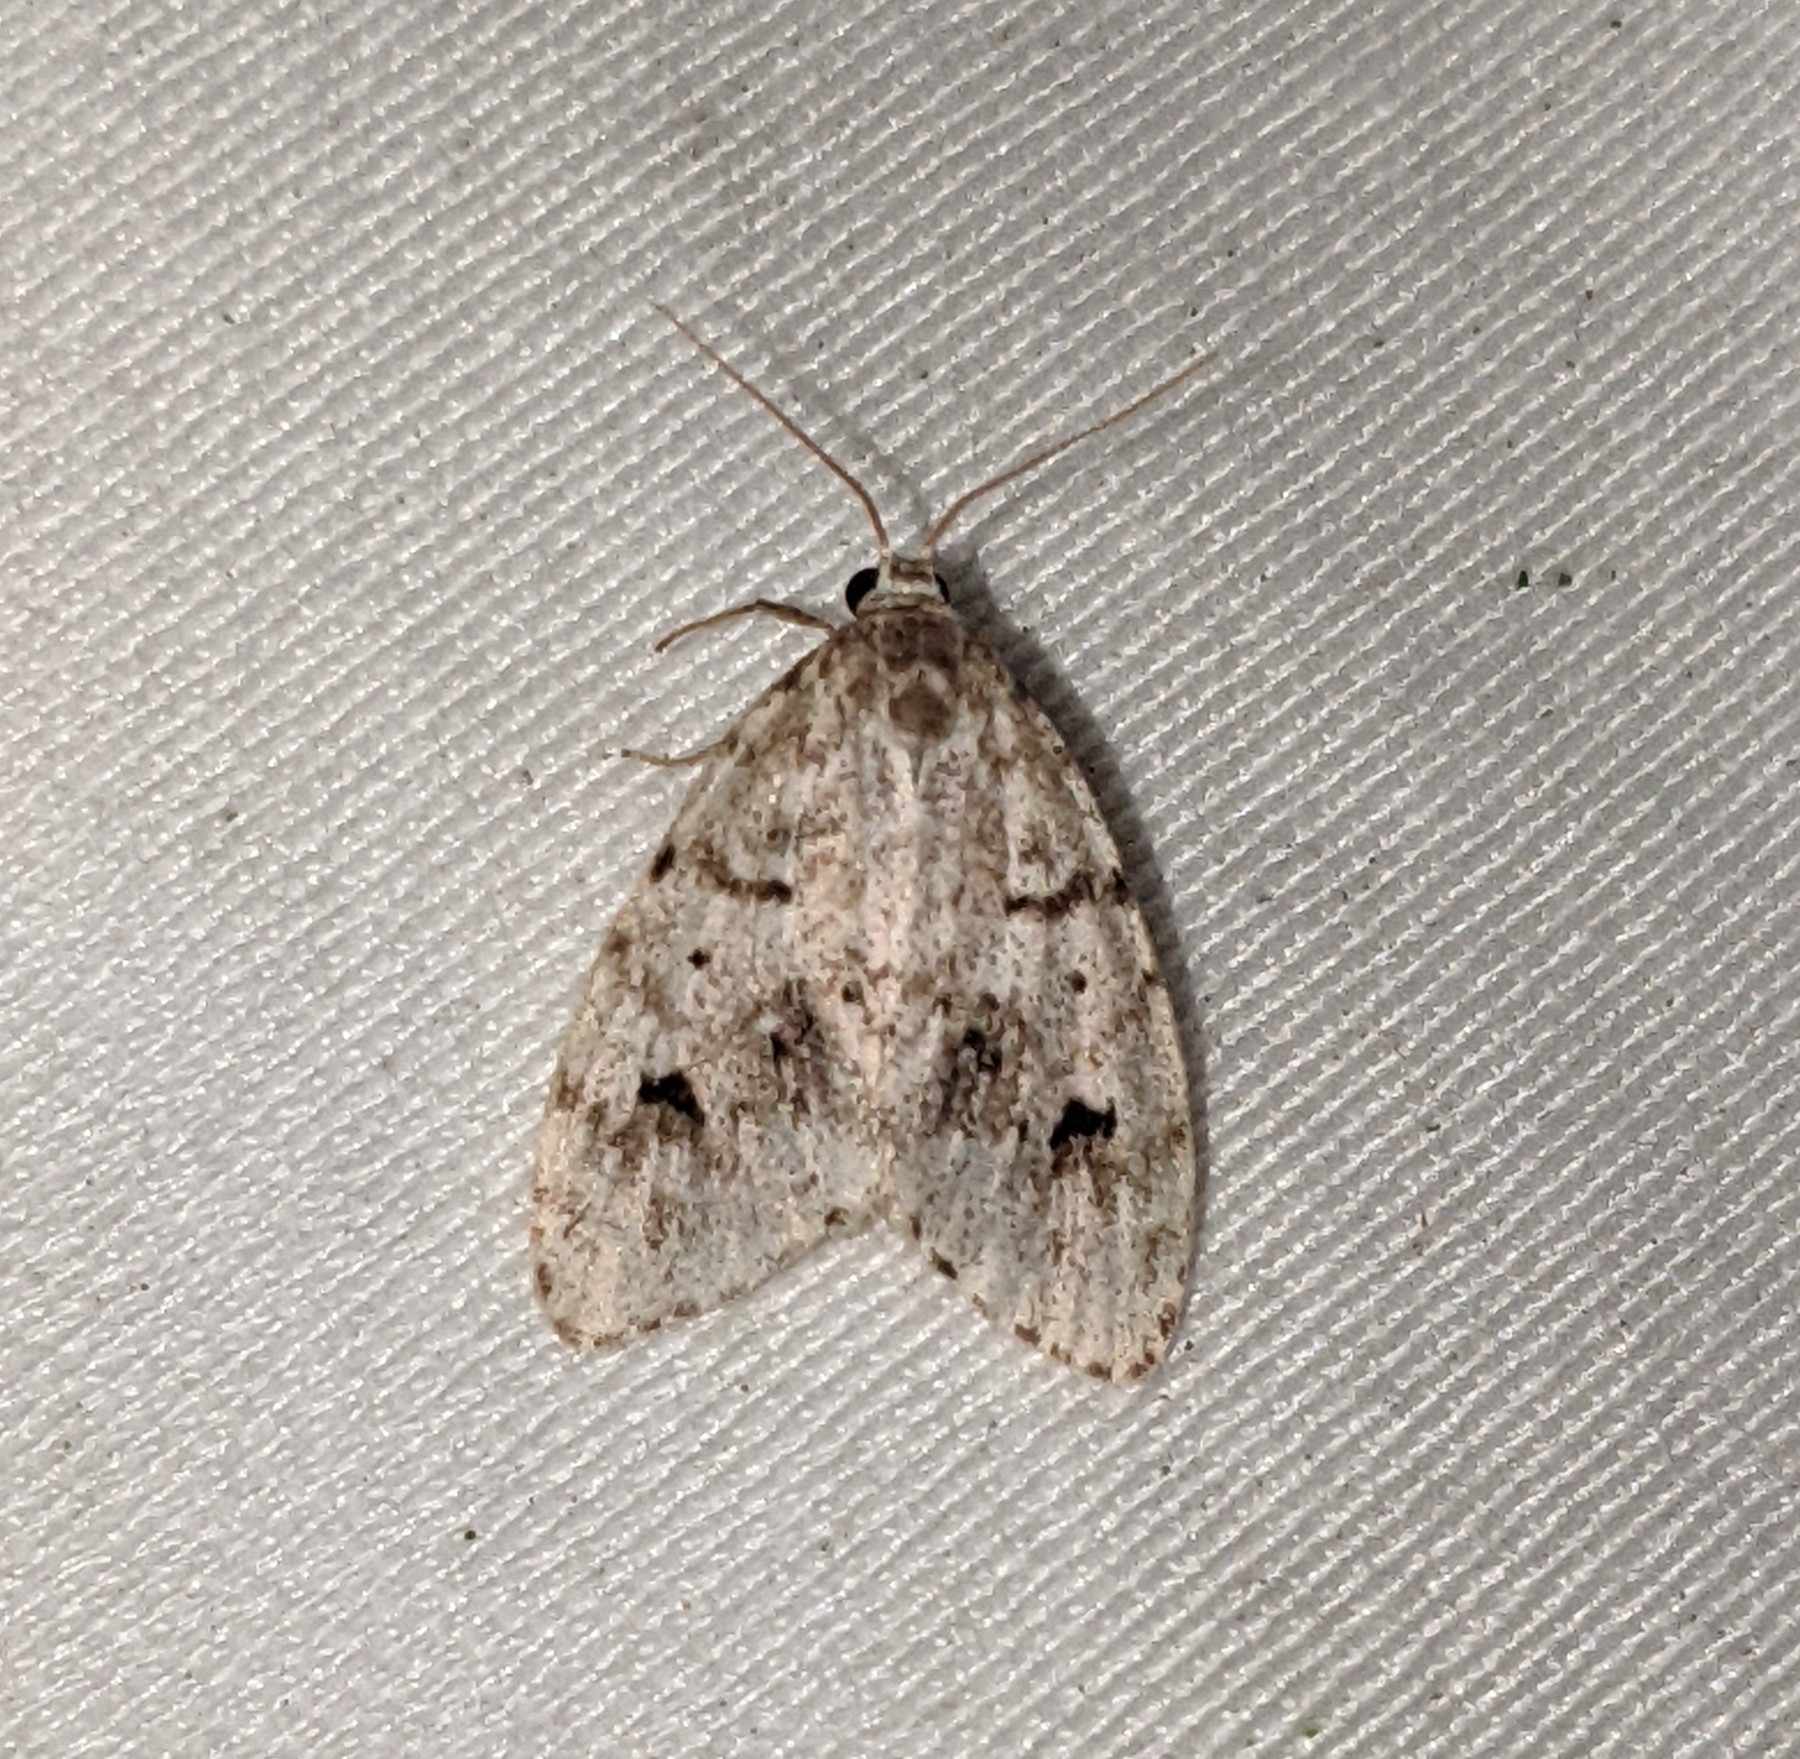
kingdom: Animalia
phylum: Arthropoda
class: Insecta
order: Lepidoptera
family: Erebidae
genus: Clemensia
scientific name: Clemensia umbrata
